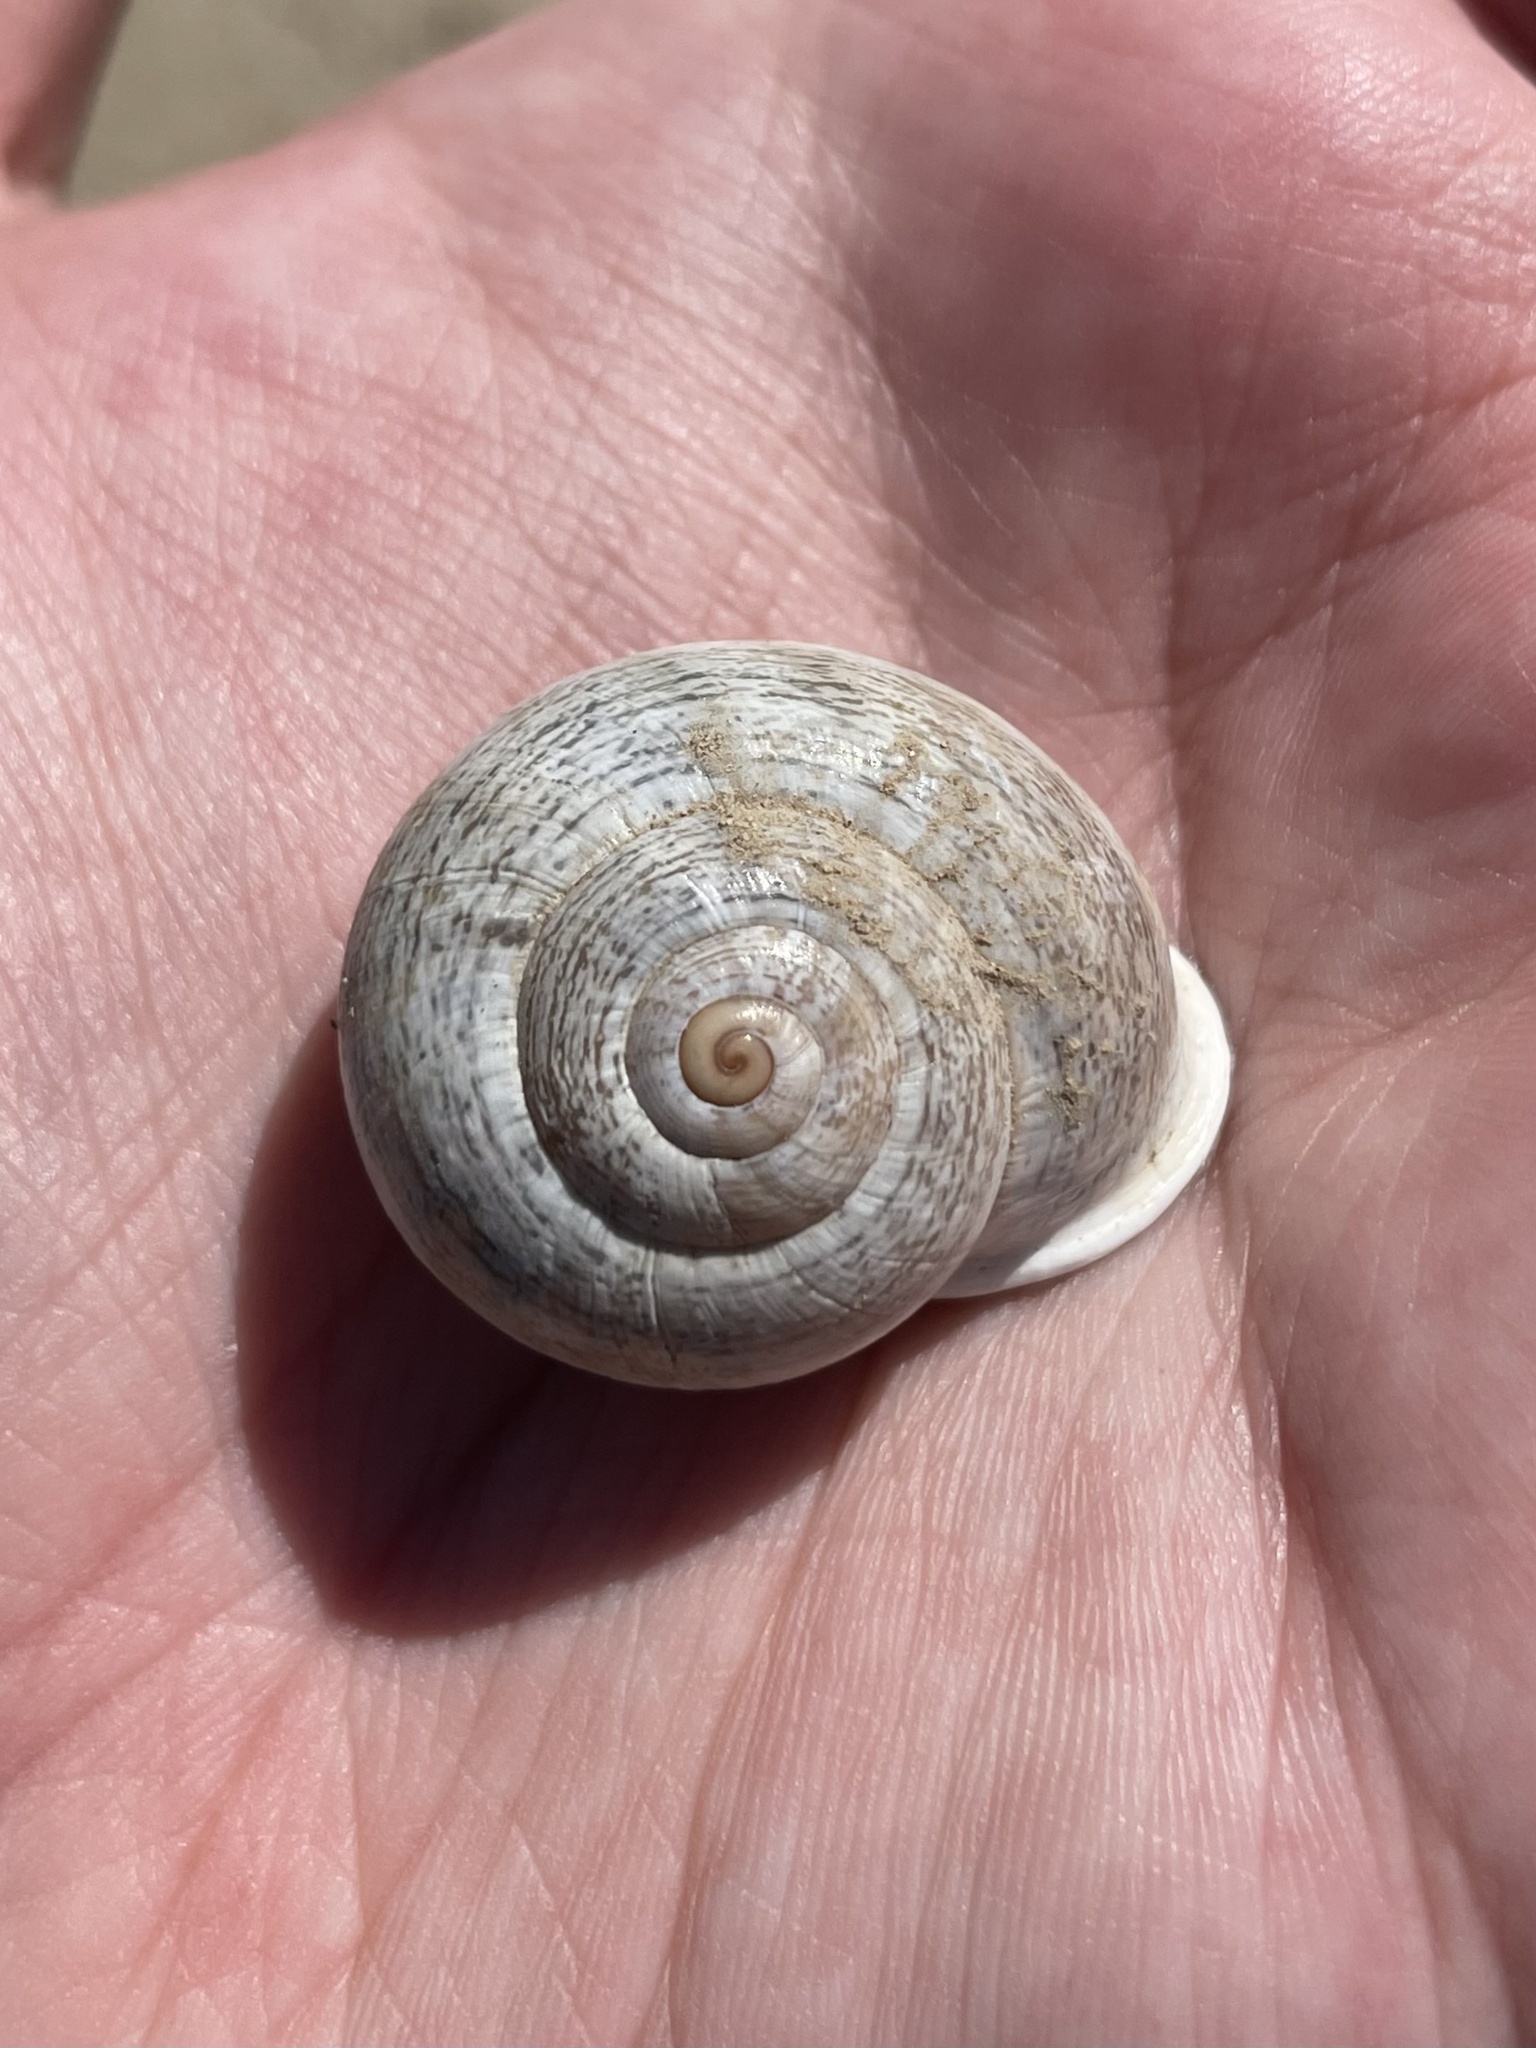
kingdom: Animalia
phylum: Mollusca
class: Gastropoda
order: Stylommatophora
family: Helicidae
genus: Otala
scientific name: Otala lactea
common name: Milk snail
